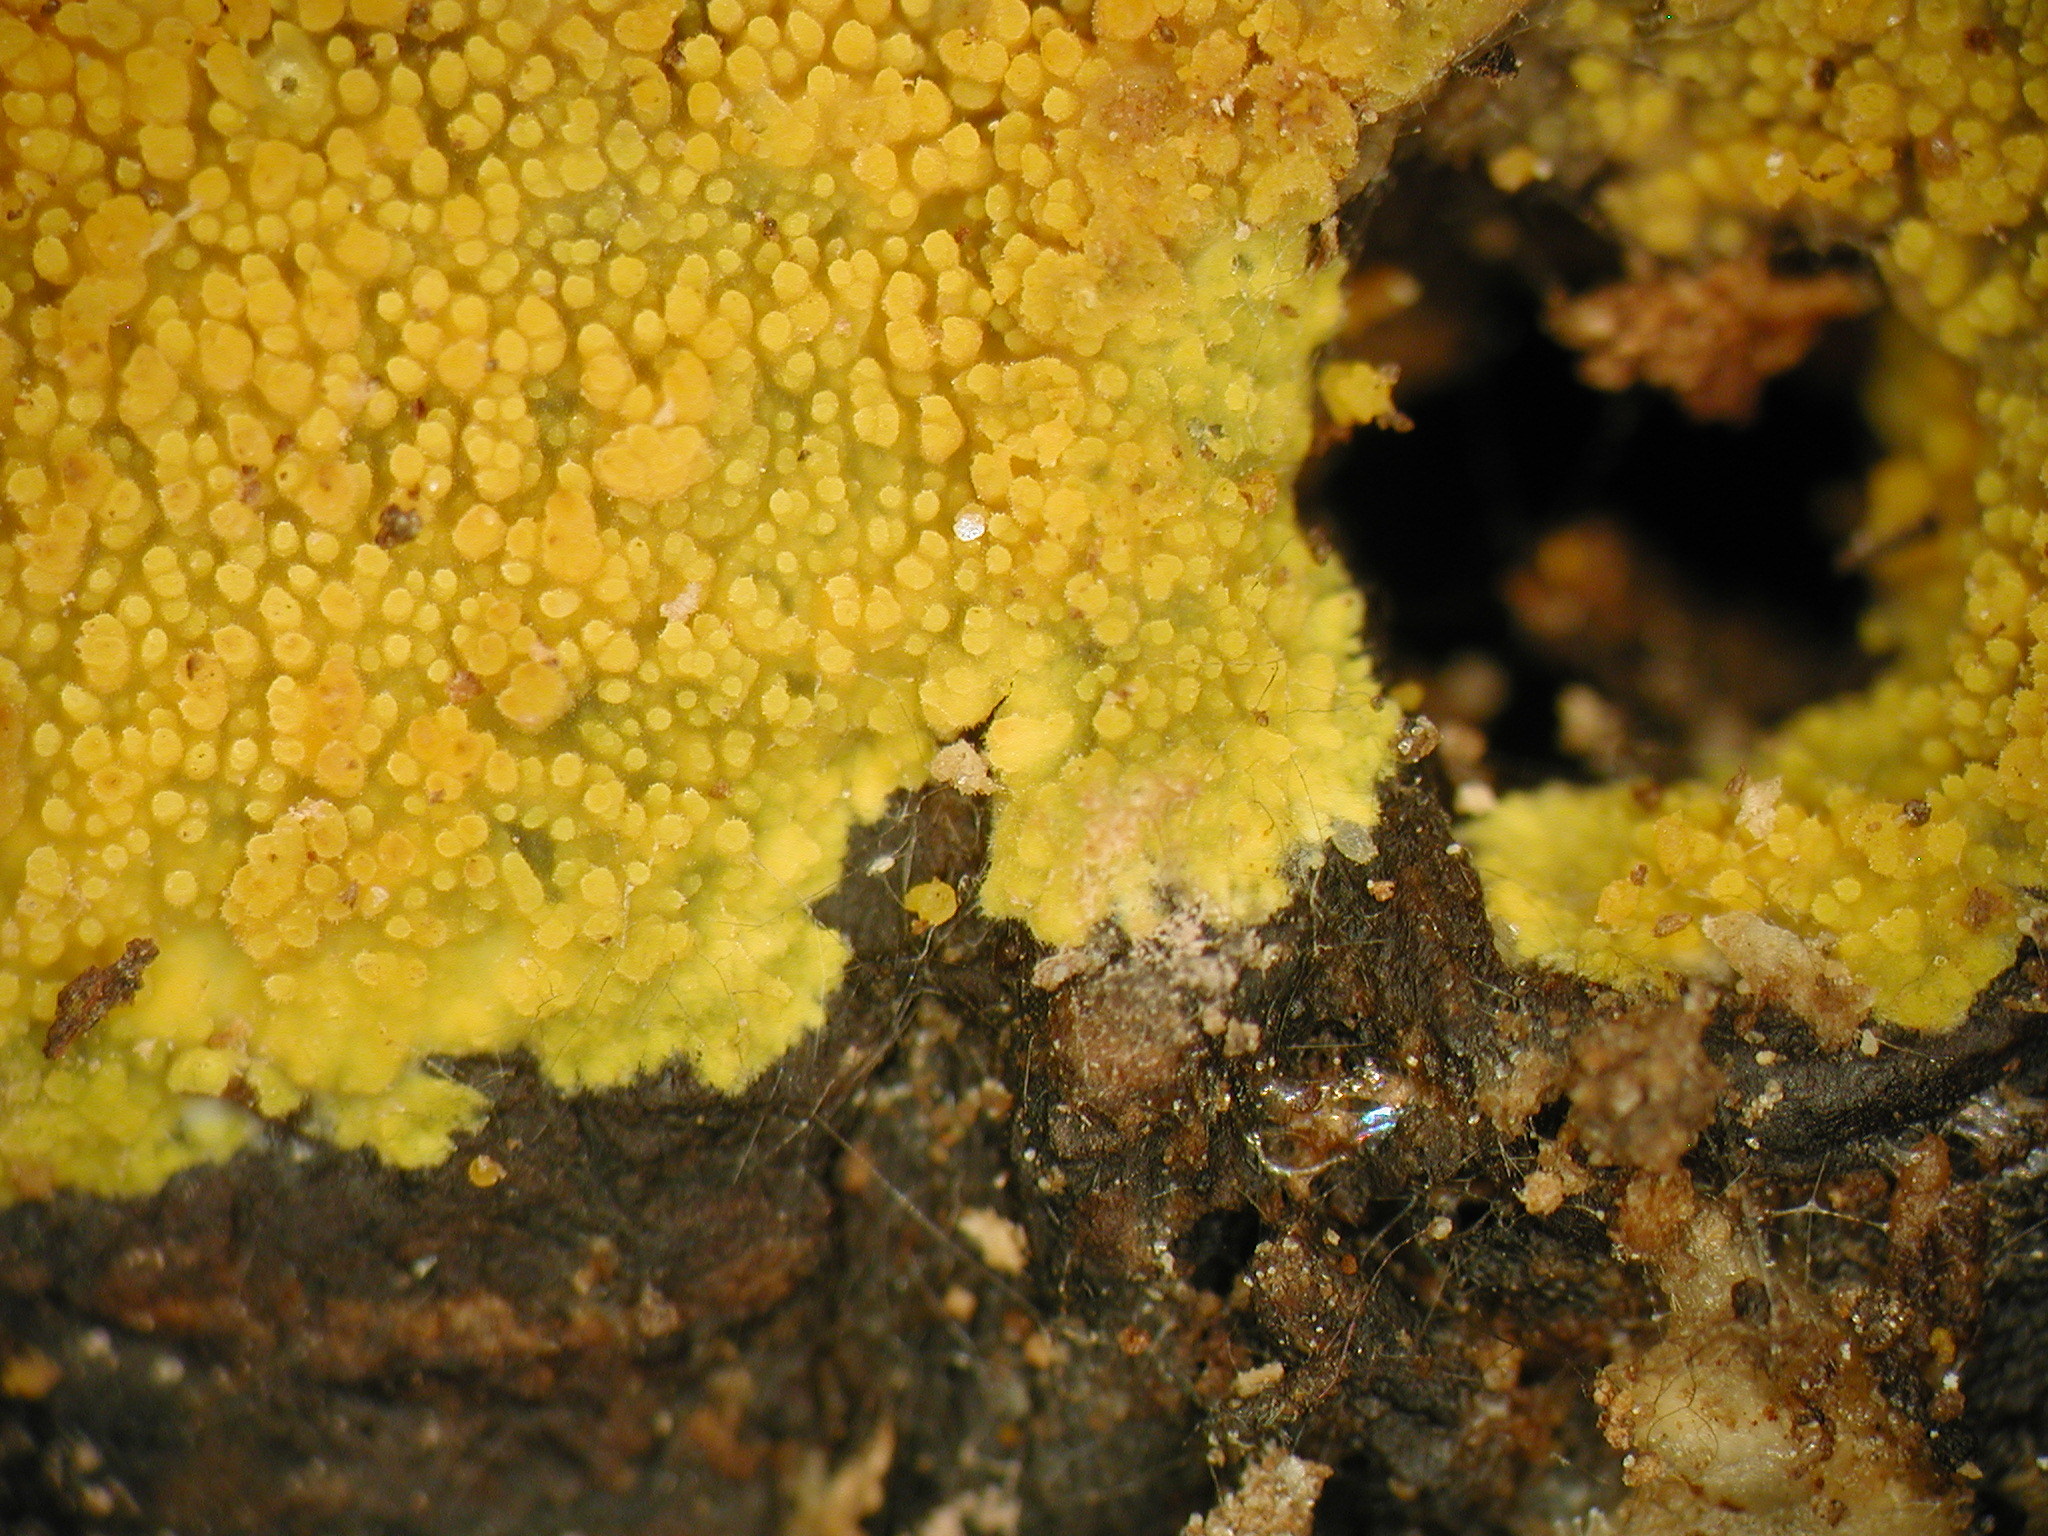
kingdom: Fungi
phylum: Basidiomycota
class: Agaricomycetes
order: Polyporales
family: Meruliaceae
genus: Crustodontia
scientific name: Crustodontia chrysocreas
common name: Wood decay
